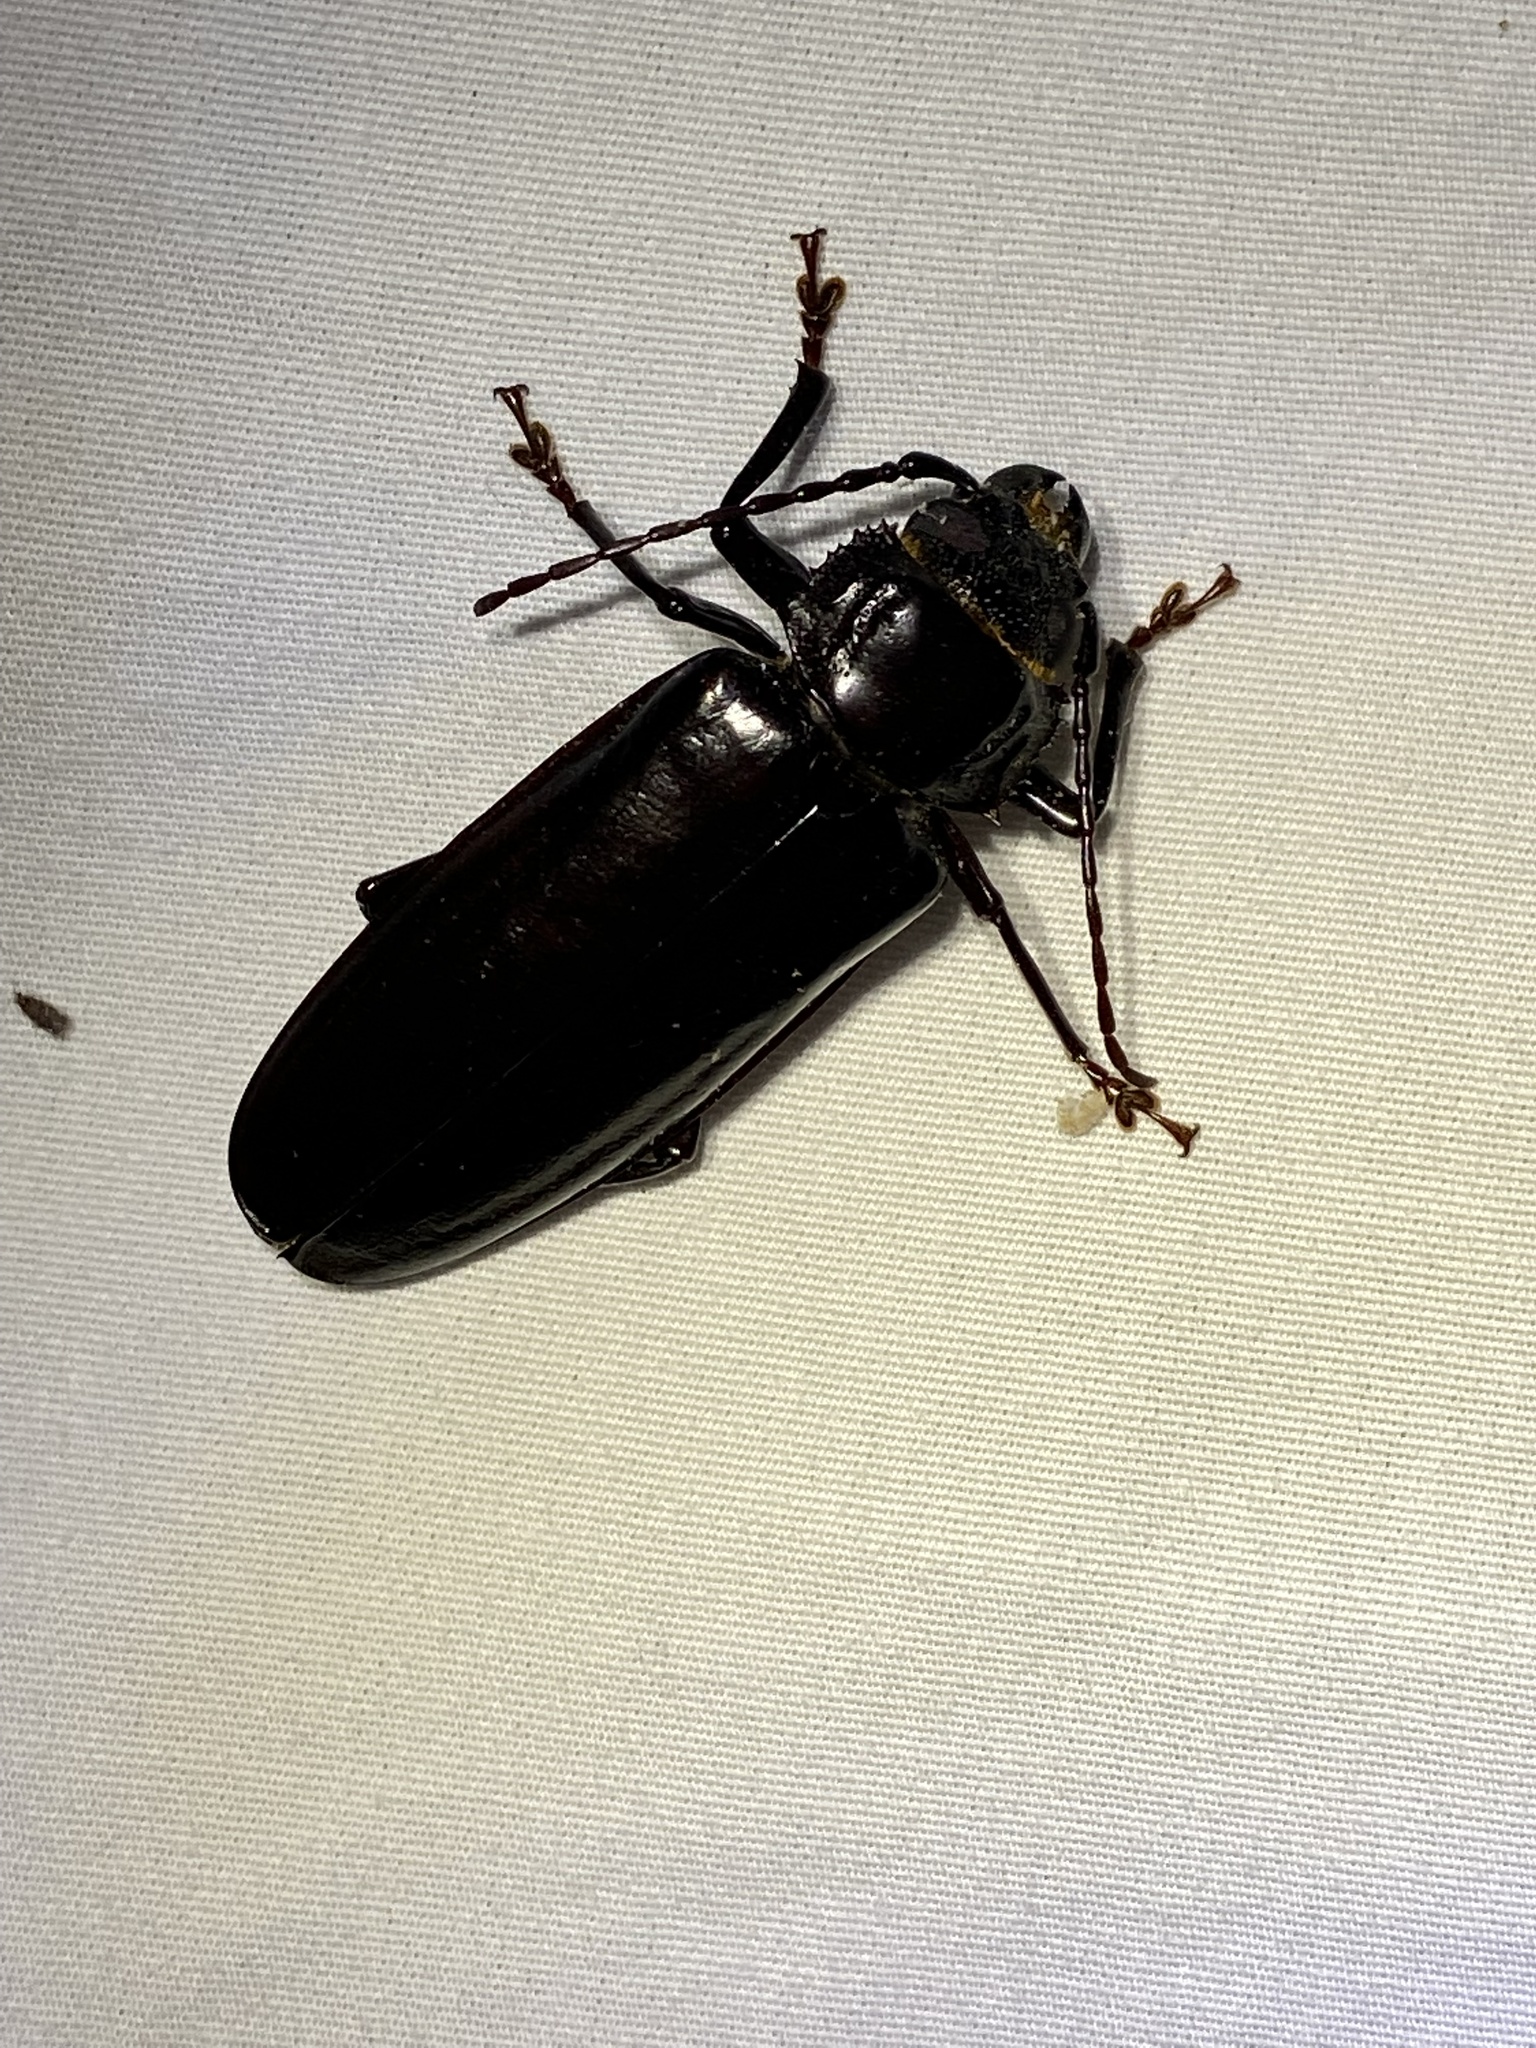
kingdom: Animalia
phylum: Arthropoda
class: Insecta
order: Coleoptera
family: Cerambycidae
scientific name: Cerambycidae
